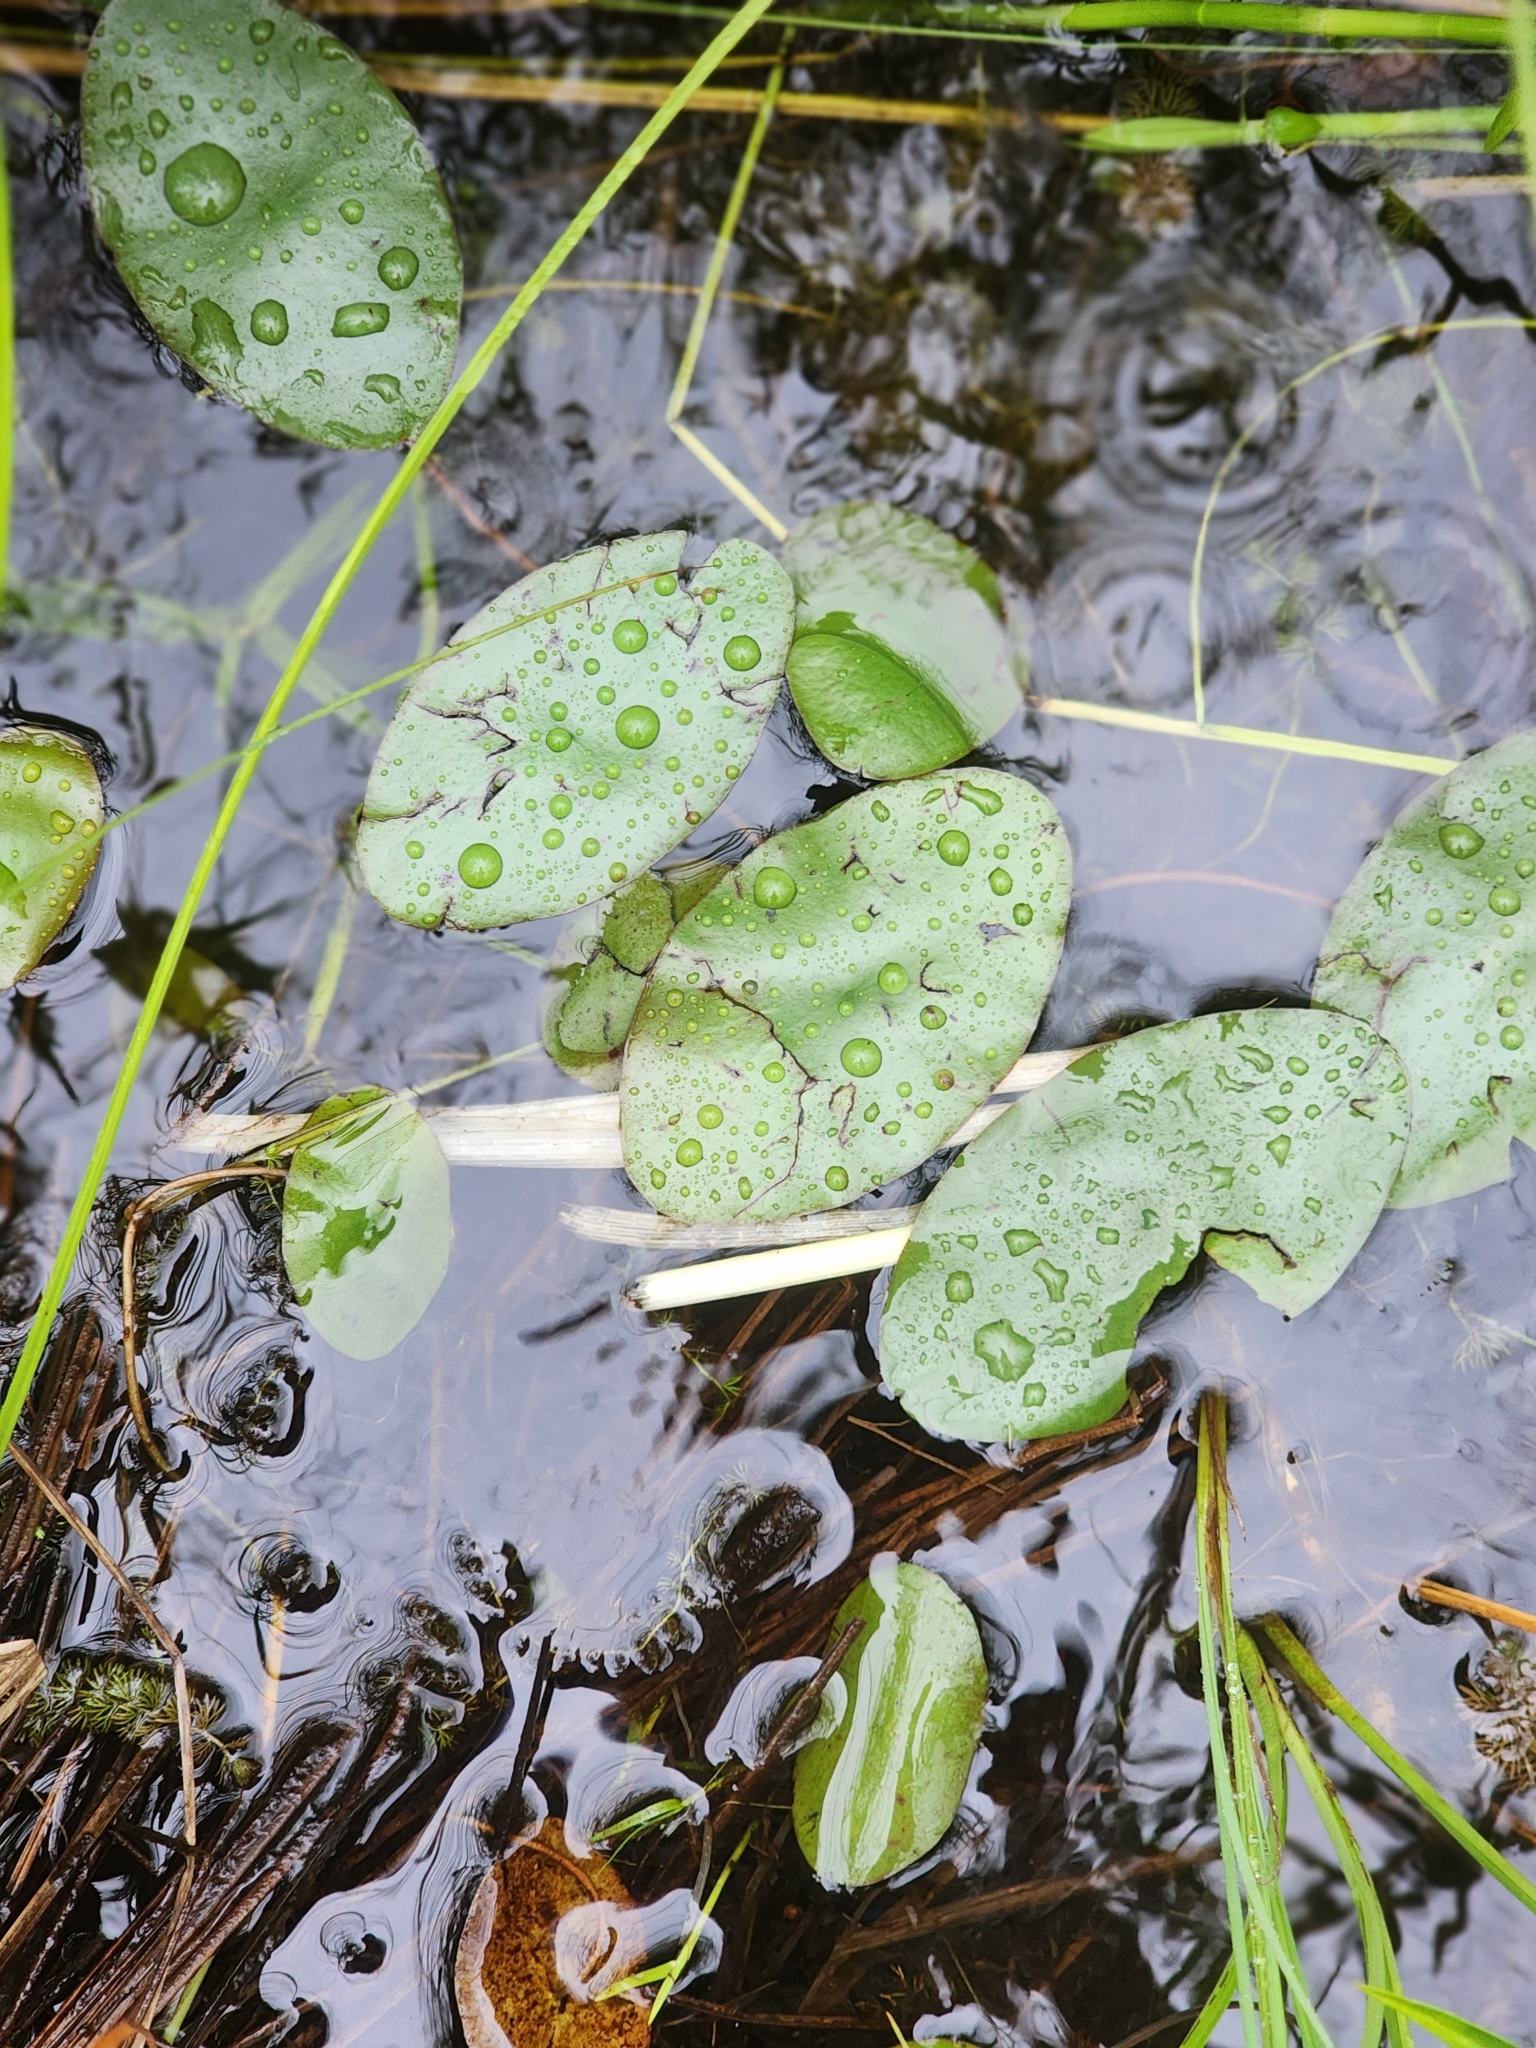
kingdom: Plantae
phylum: Tracheophyta
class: Magnoliopsida
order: Nymphaeales
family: Cabombaceae
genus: Brasenia
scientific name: Brasenia schreberi
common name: Water-shield
